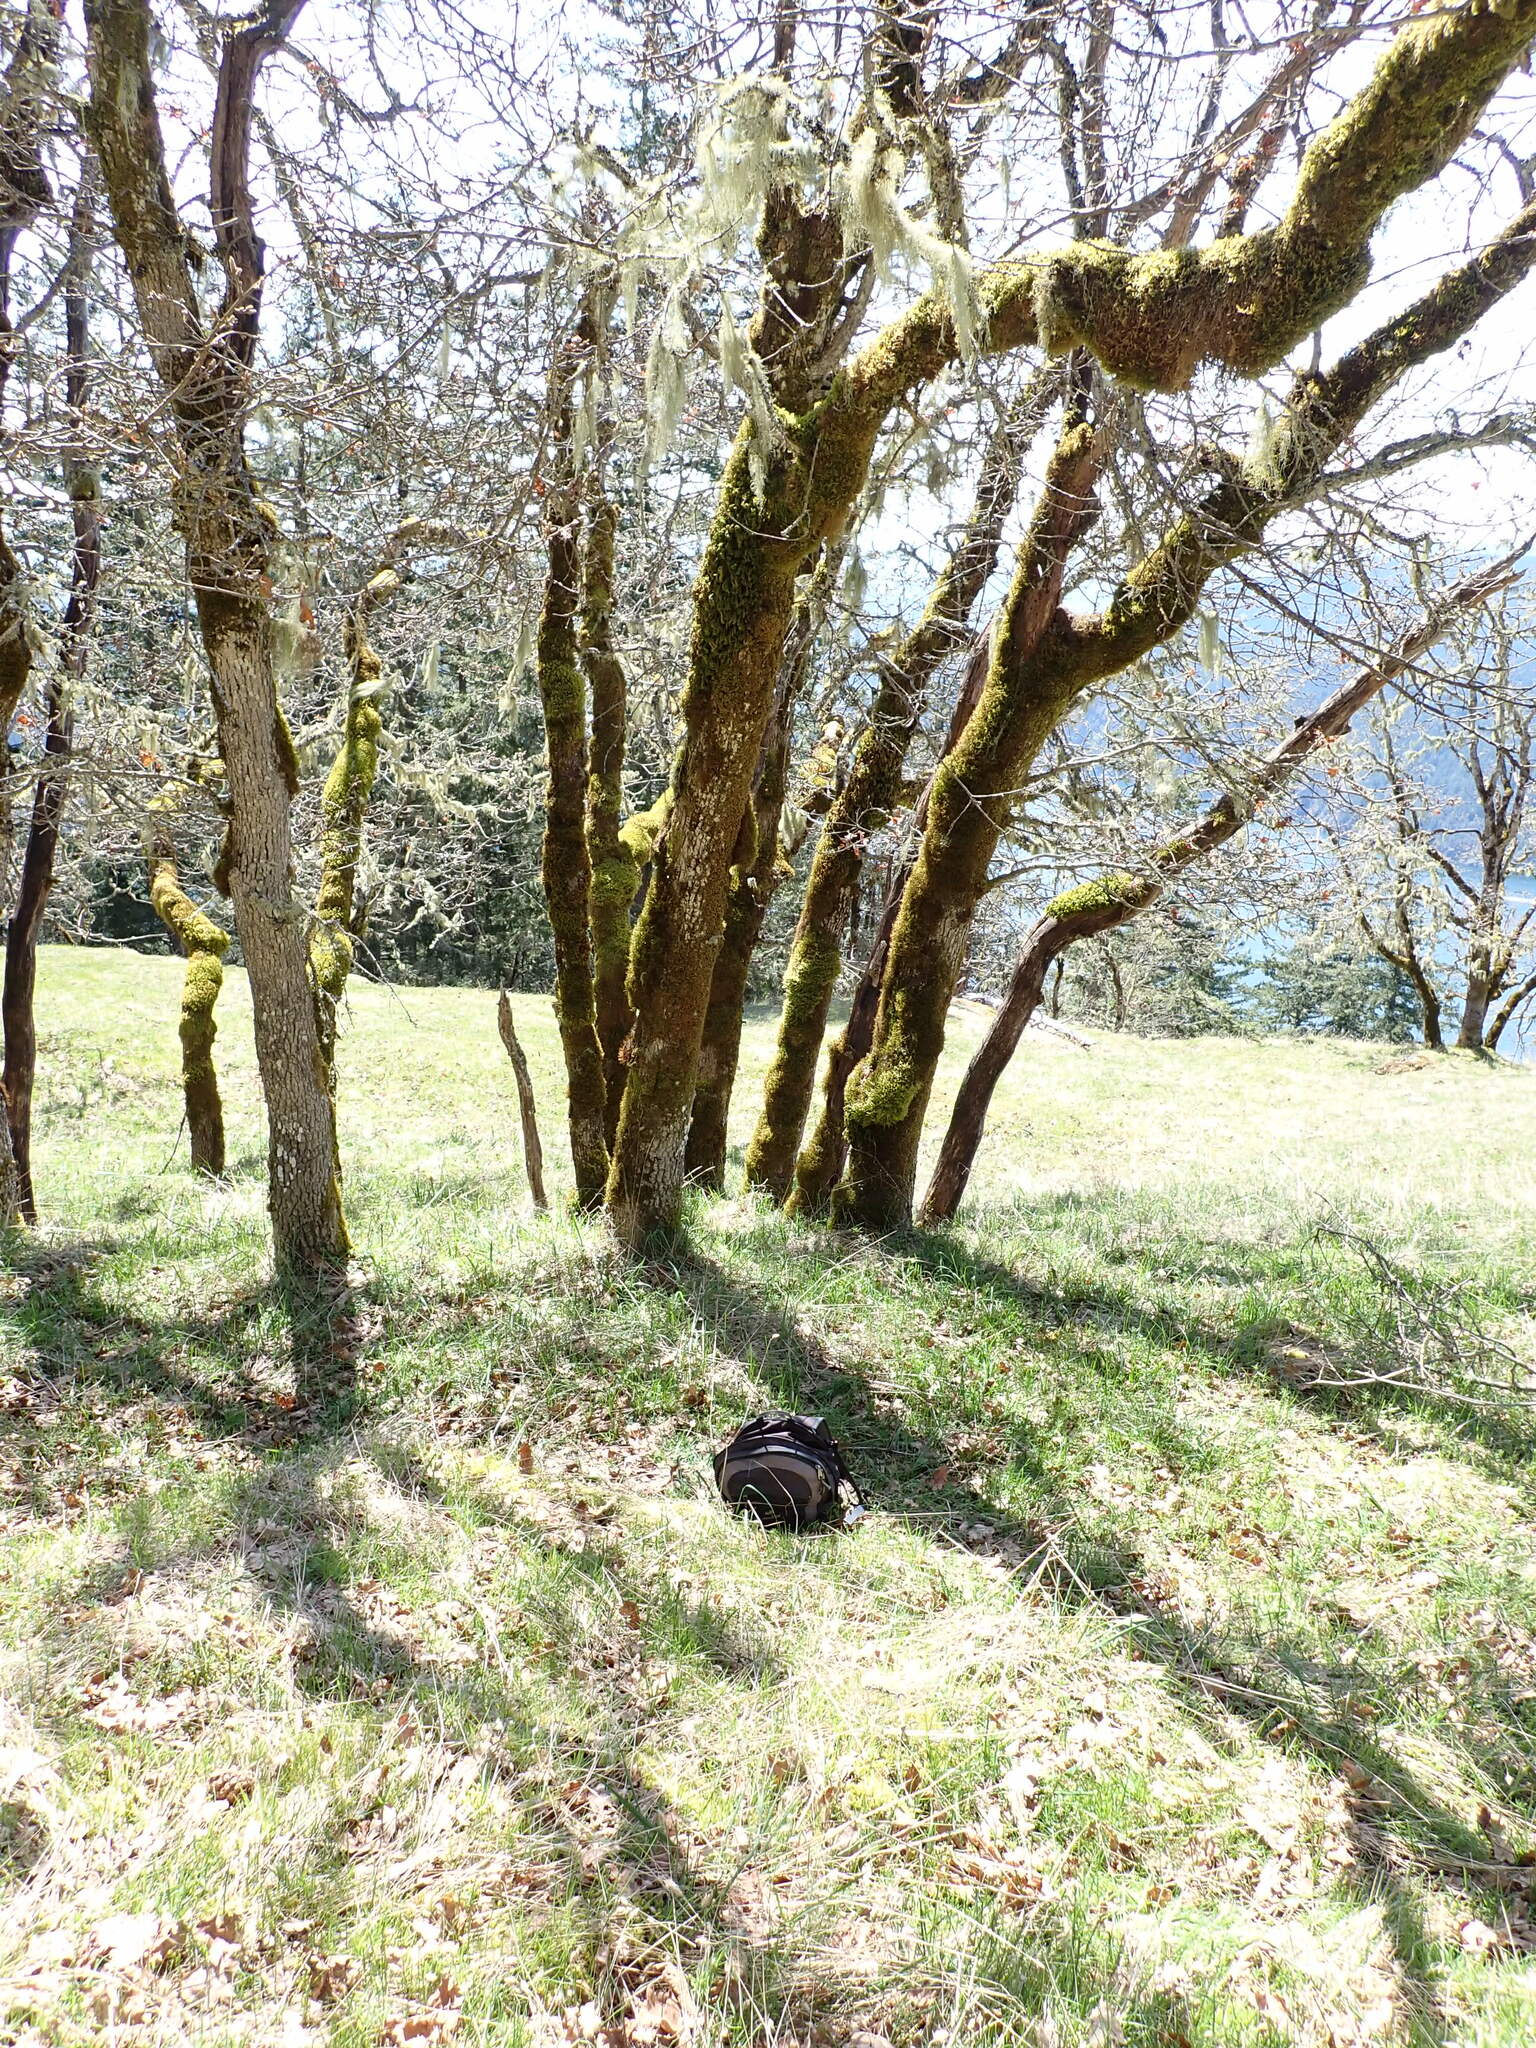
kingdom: Plantae
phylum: Tracheophyta
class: Magnoliopsida
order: Fagales
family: Fagaceae
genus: Quercus
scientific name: Quercus garryana
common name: Garry oak
